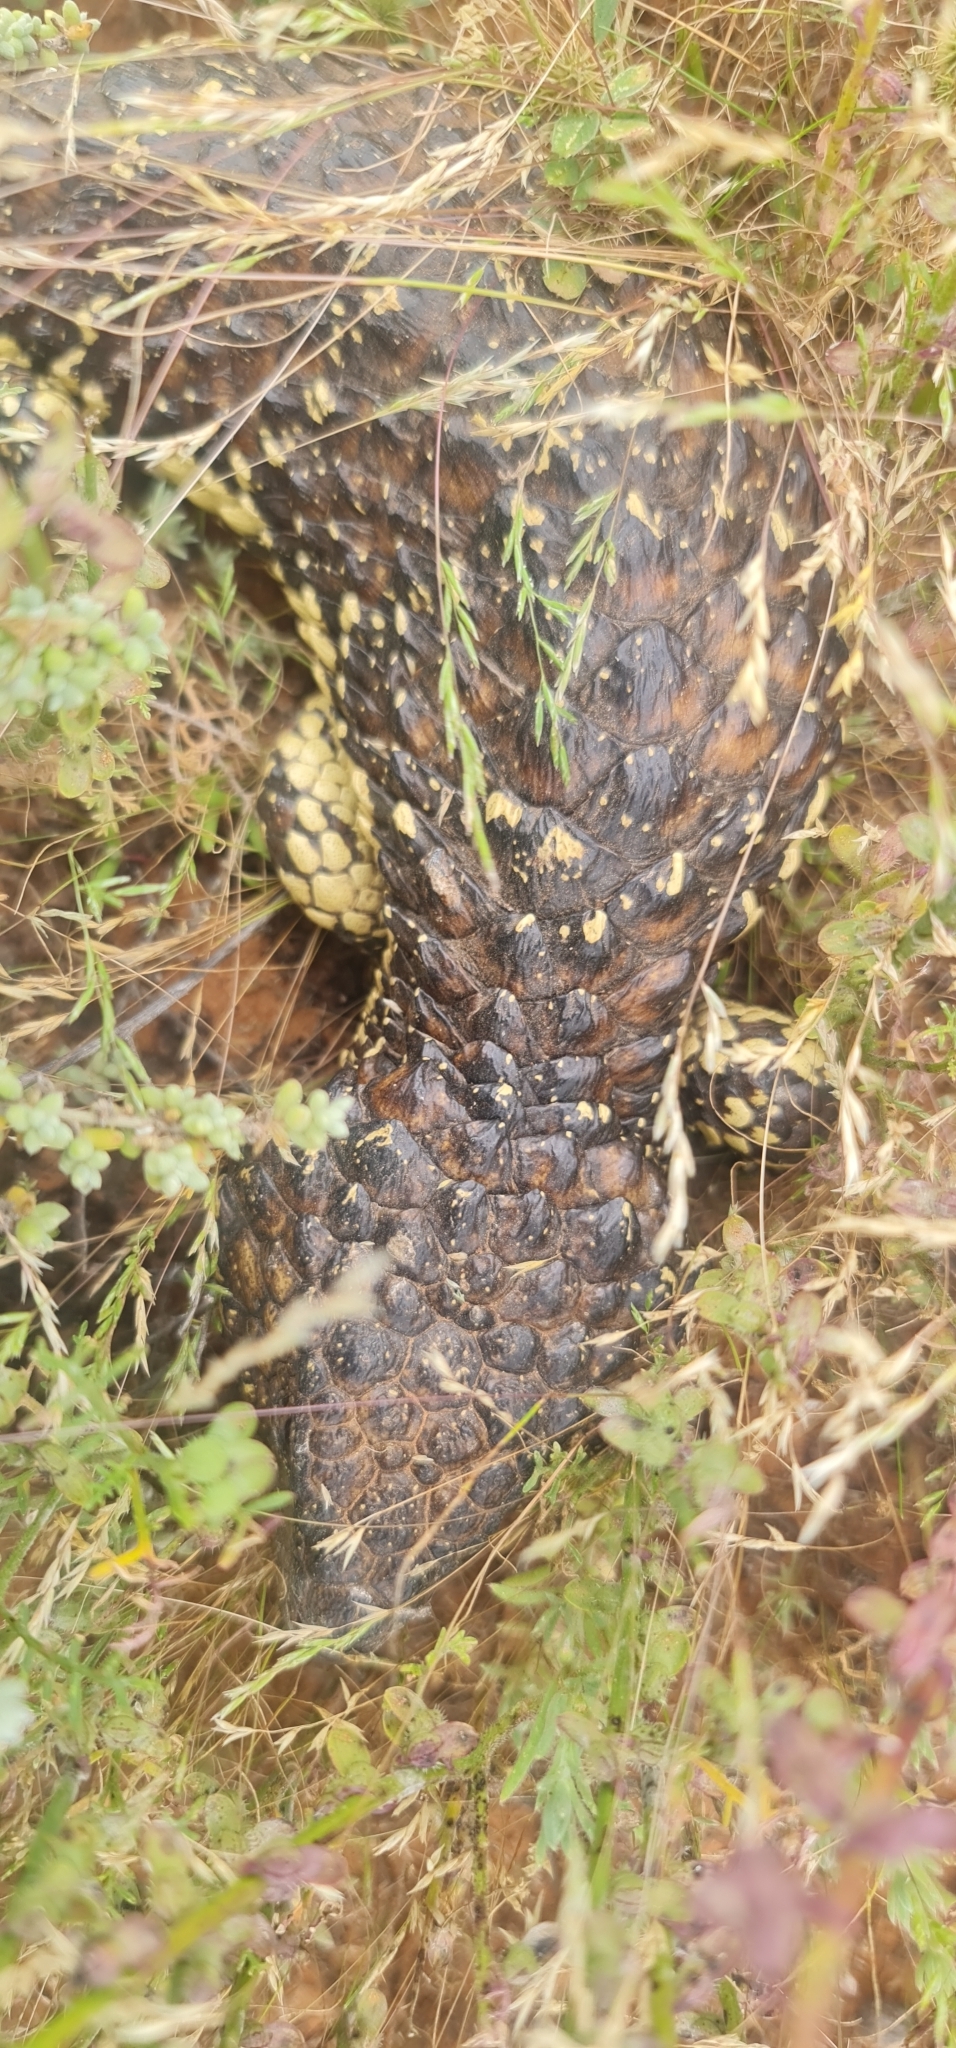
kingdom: Animalia
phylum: Chordata
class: Squamata
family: Scincidae
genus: Tiliqua
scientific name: Tiliqua rugosa
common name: Pinecone lizard
